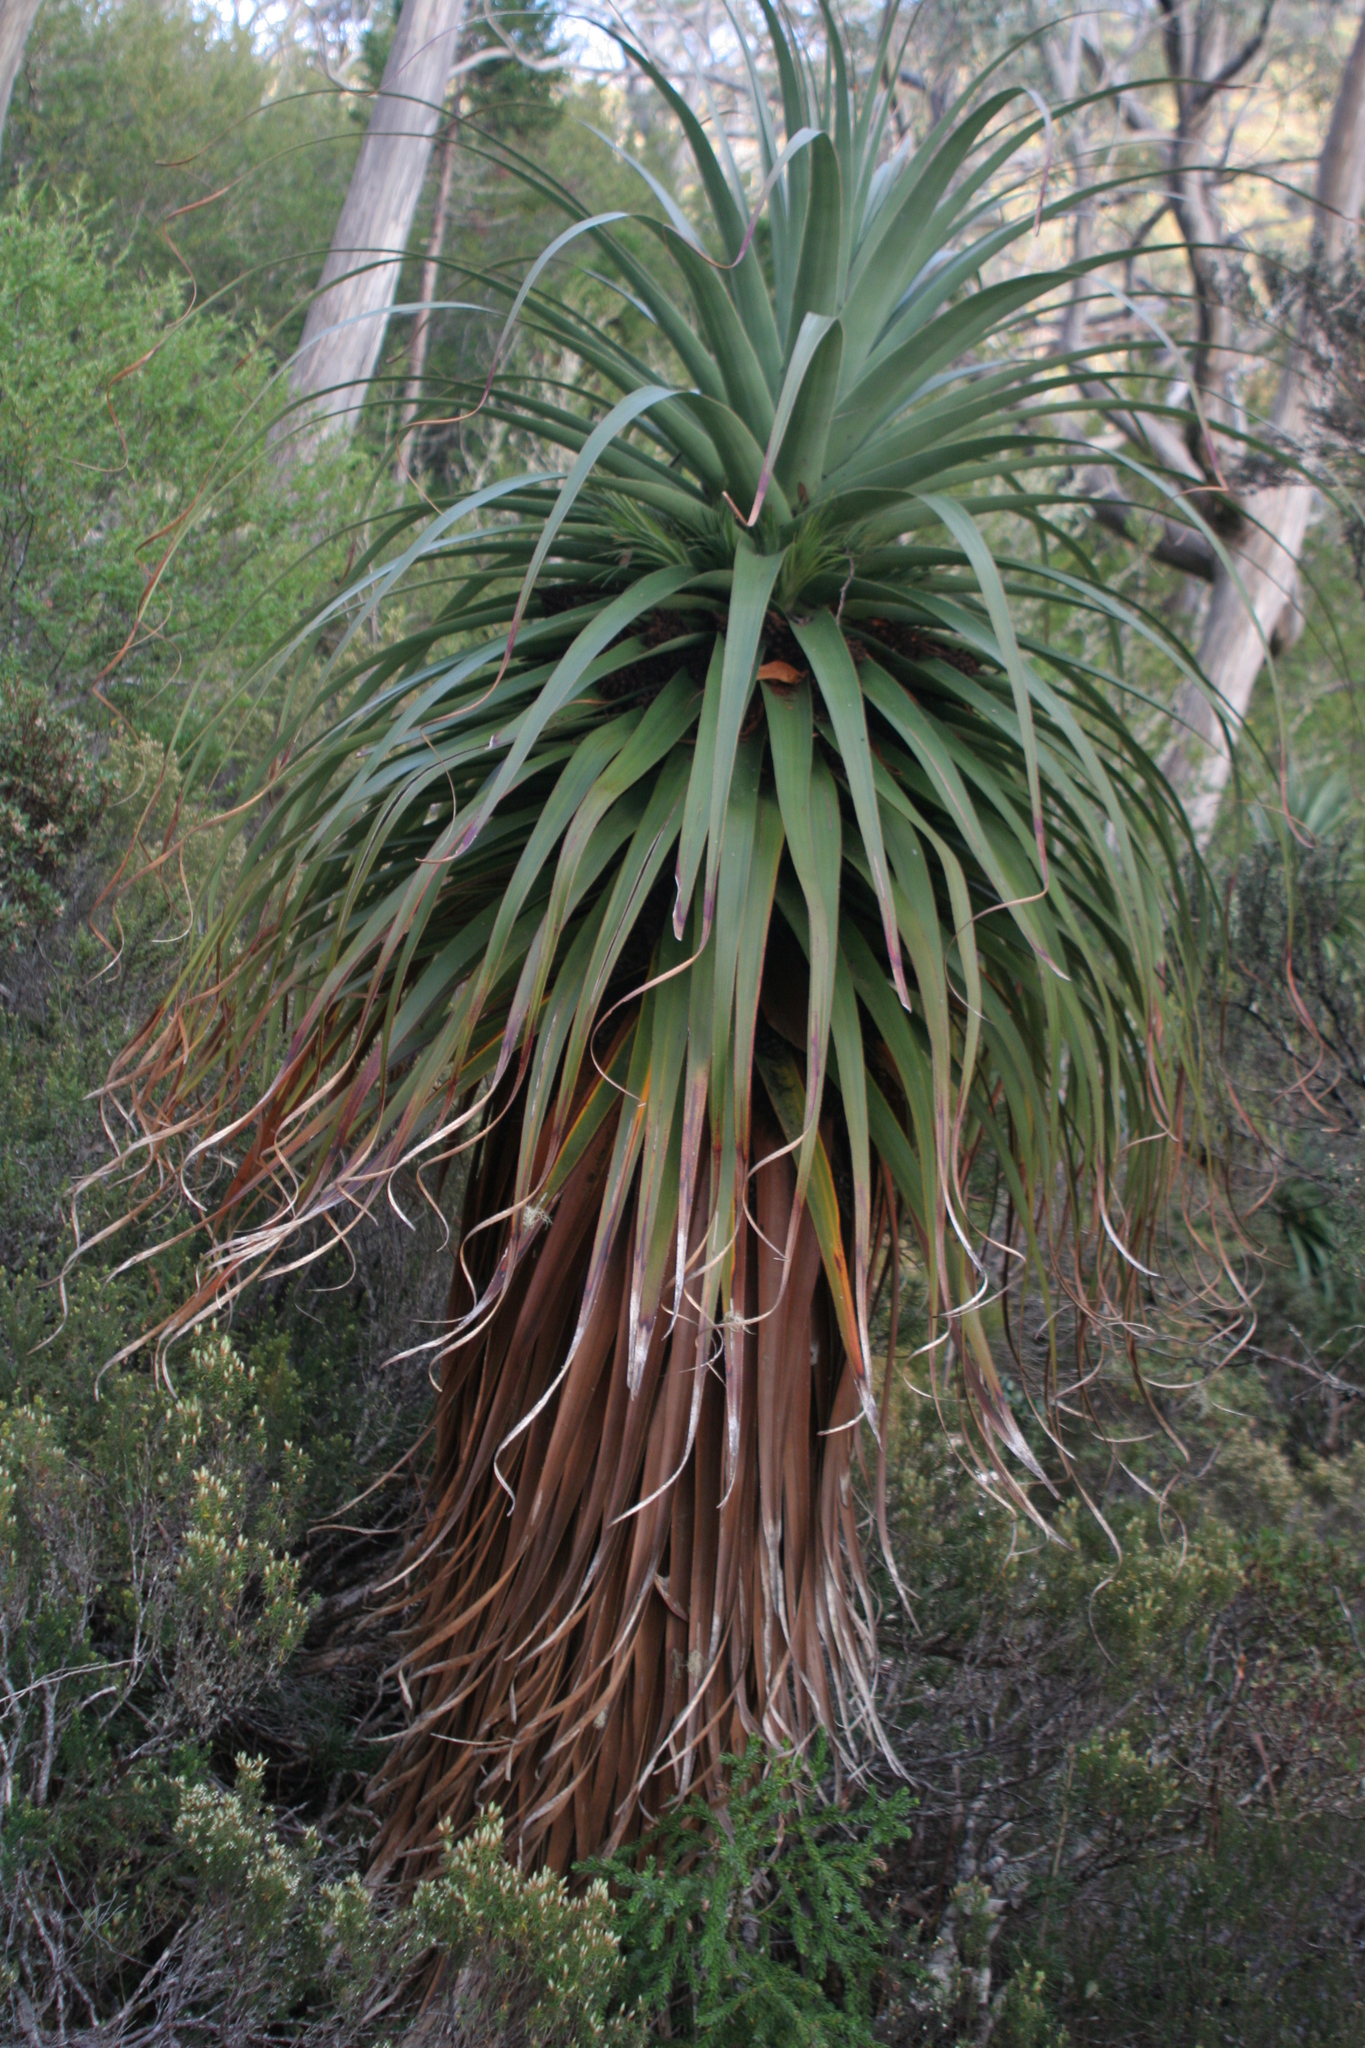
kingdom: Plantae
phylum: Tracheophyta
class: Magnoliopsida
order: Ericales
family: Ericaceae
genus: Dracophyllum
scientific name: Dracophyllum pandanifolium
